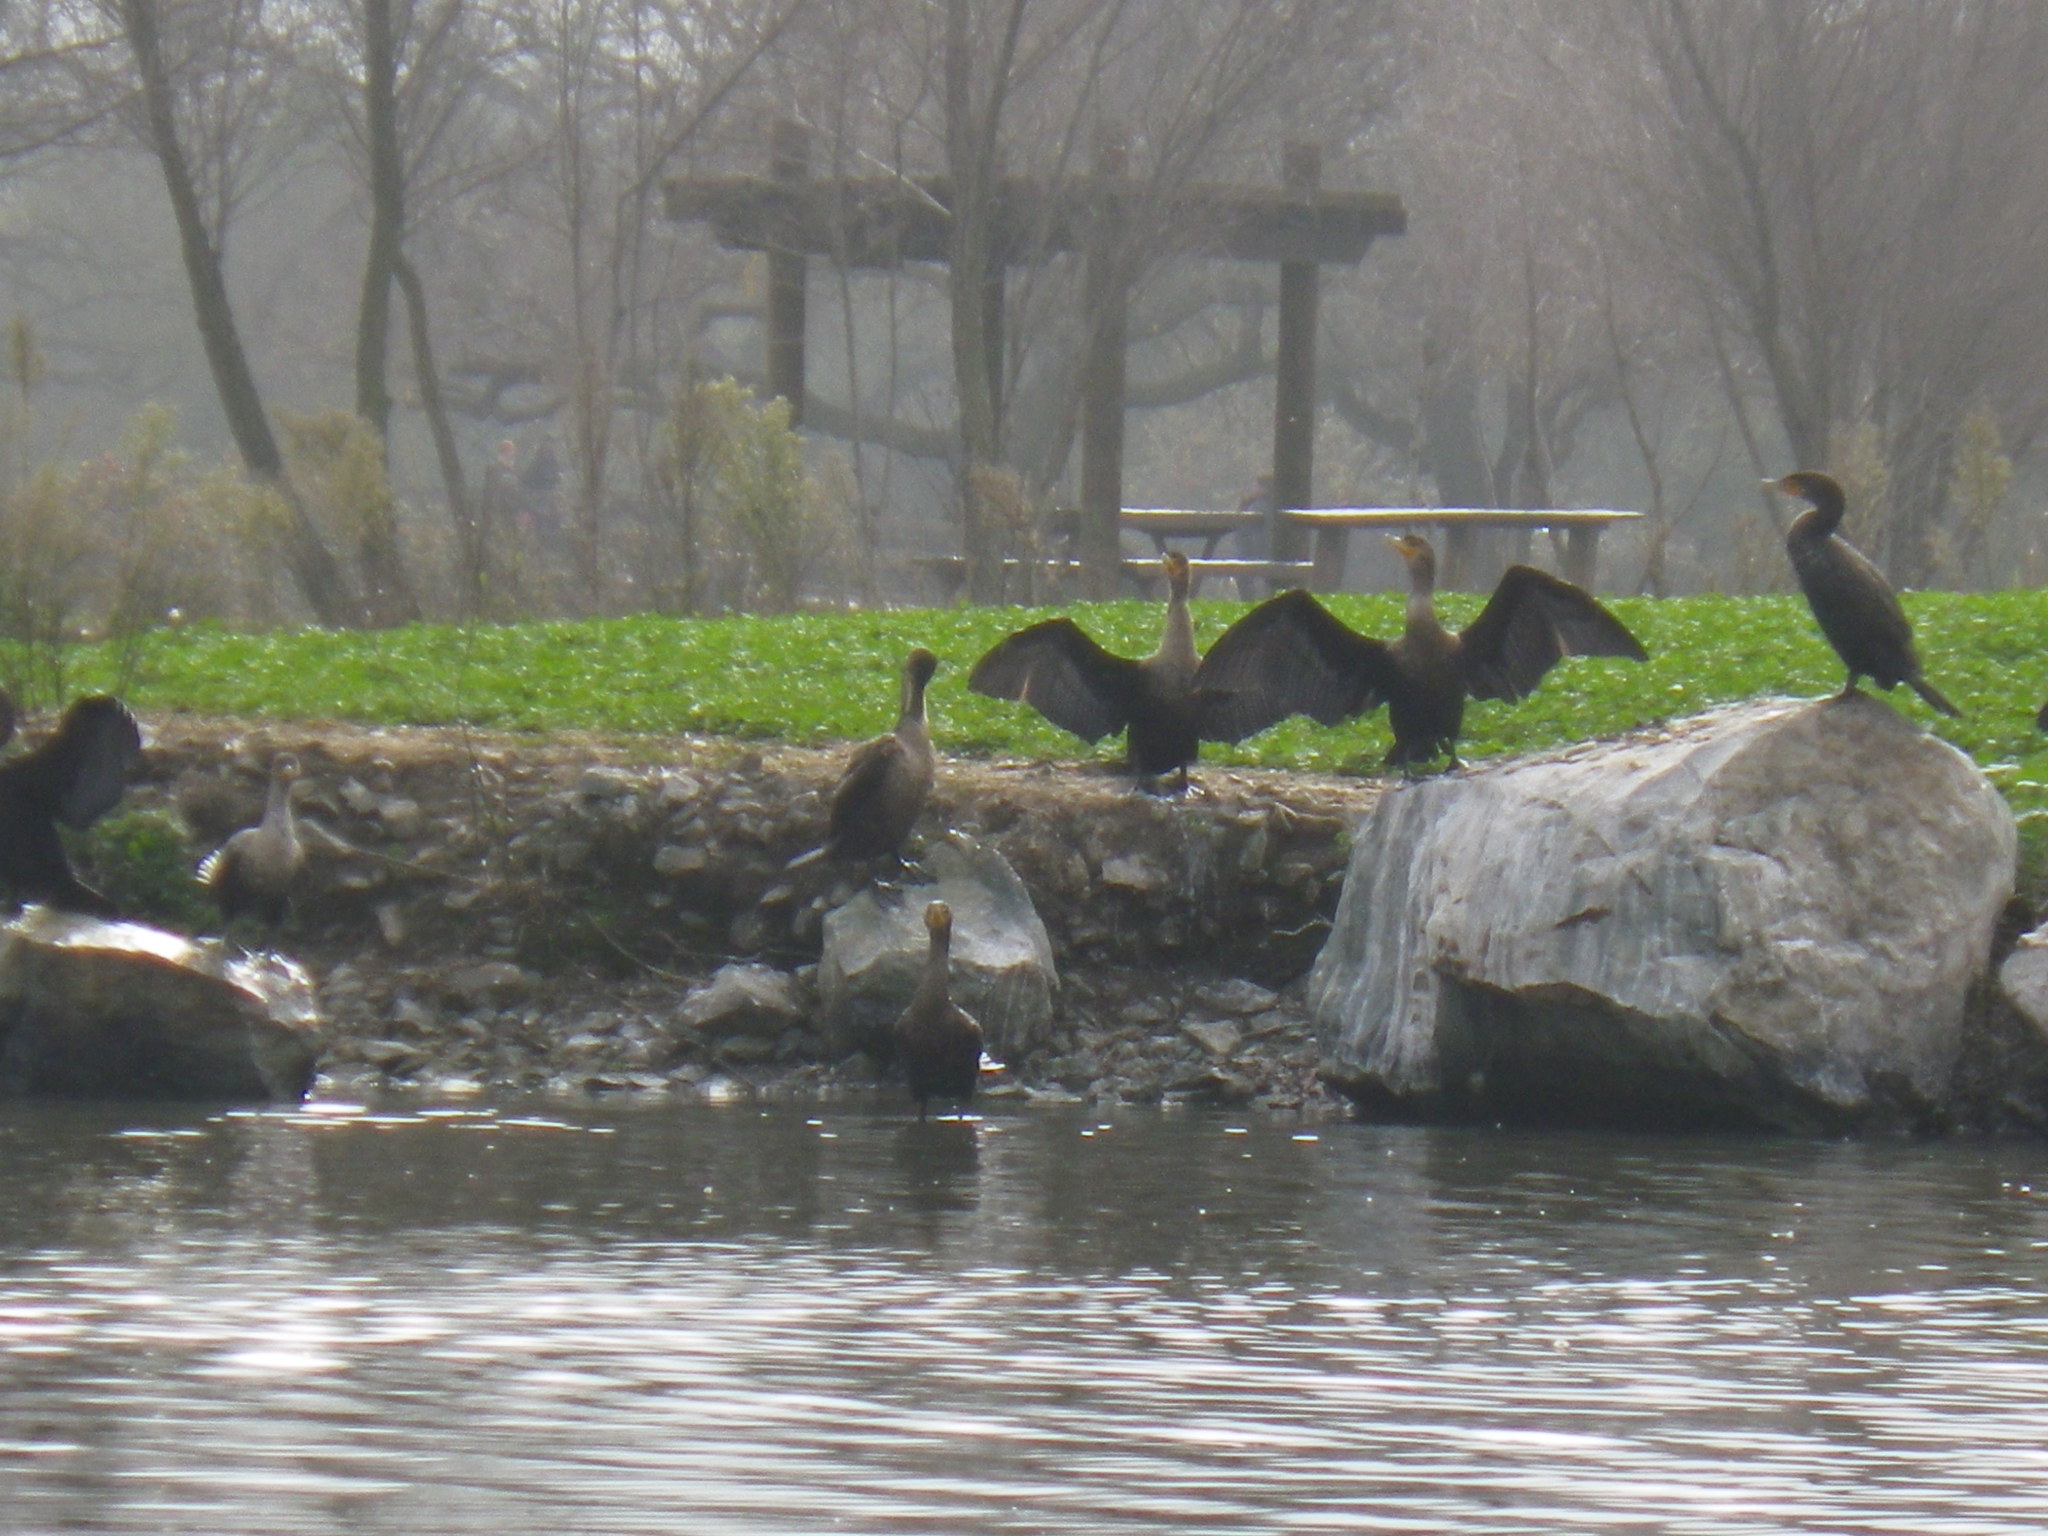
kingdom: Animalia
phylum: Chordata
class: Aves
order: Suliformes
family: Phalacrocoracidae
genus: Phalacrocorax
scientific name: Phalacrocorax auritus
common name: Double-crested cormorant
